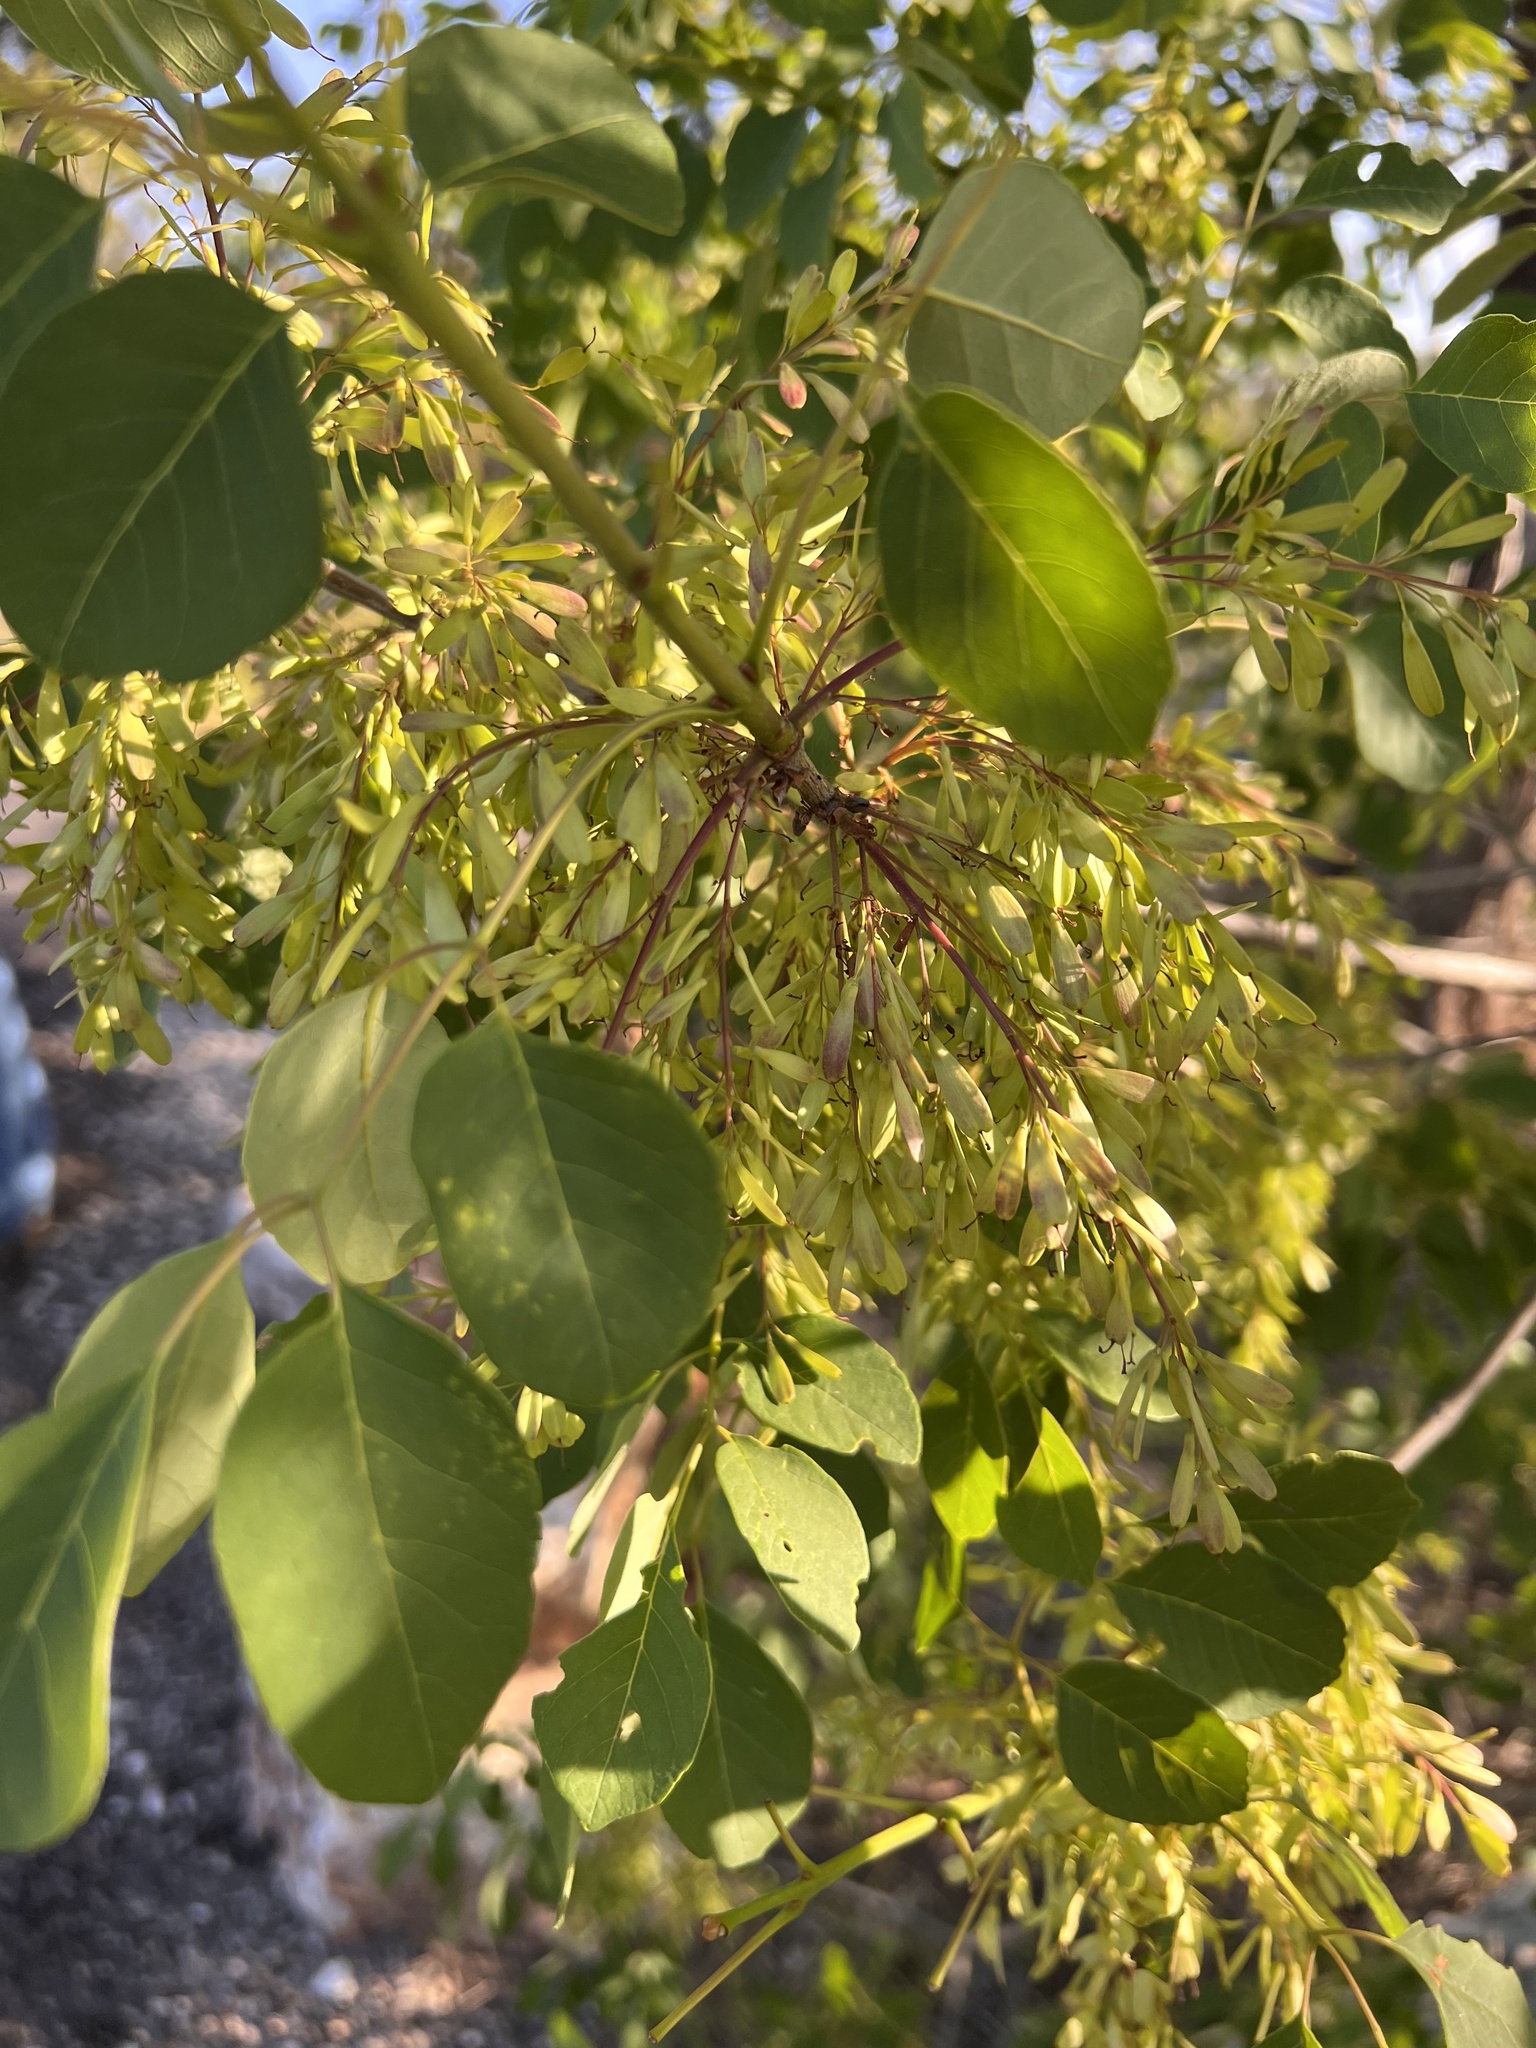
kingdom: Plantae
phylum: Tracheophyta
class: Magnoliopsida
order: Lamiales
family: Oleaceae
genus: Fraxinus
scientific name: Fraxinus albicans
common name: Texas ash
